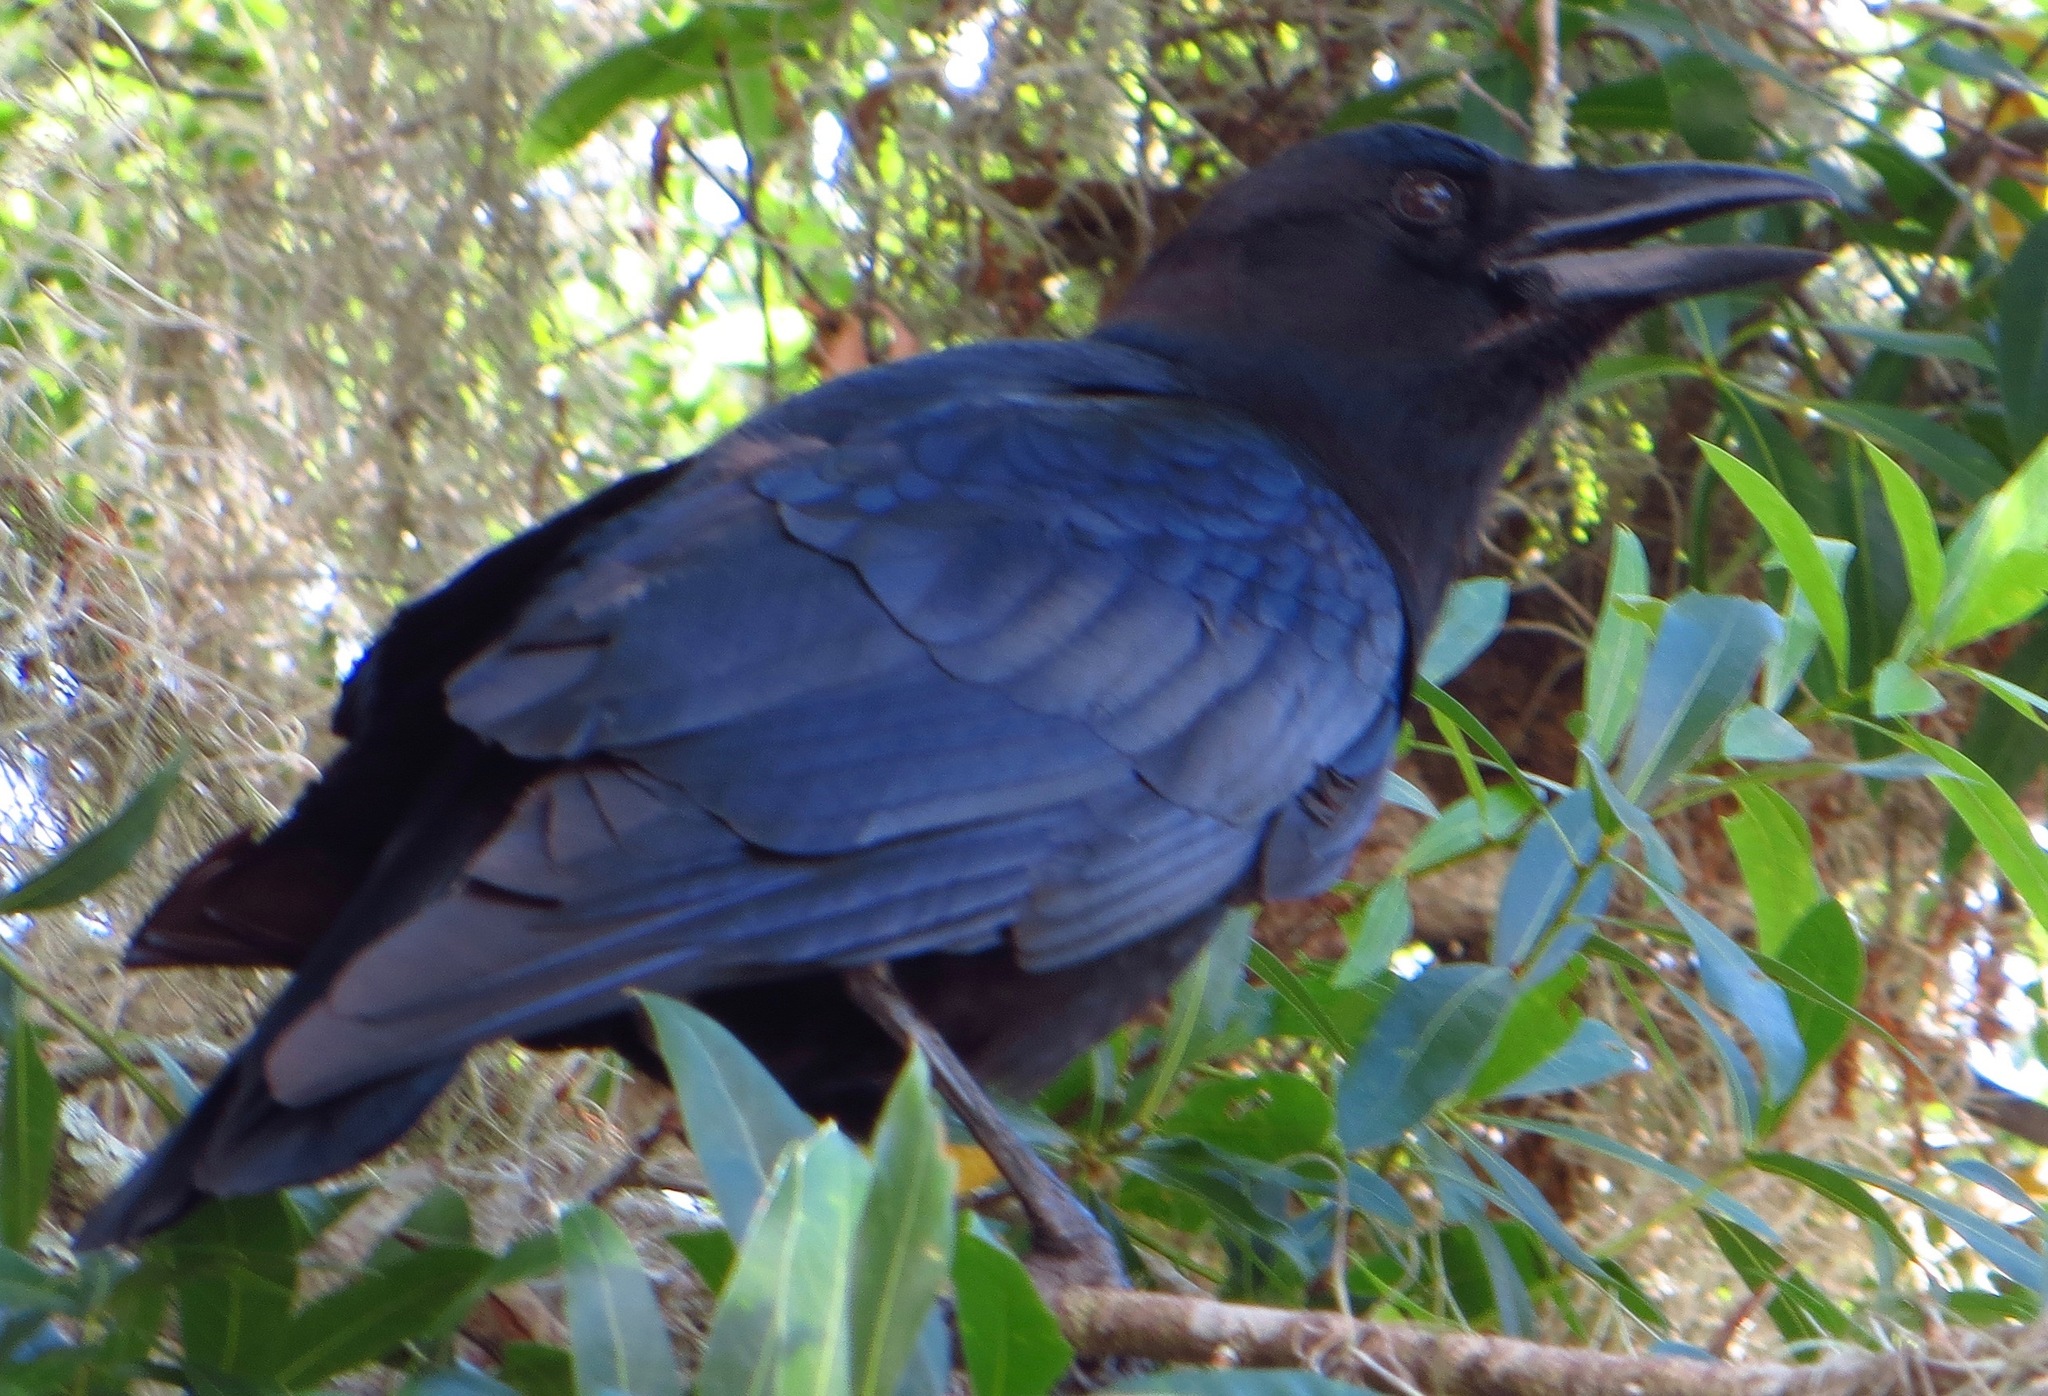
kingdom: Animalia
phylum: Chordata
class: Aves
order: Passeriformes
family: Corvidae
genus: Corvus
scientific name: Corvus brachyrhynchos
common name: American crow
